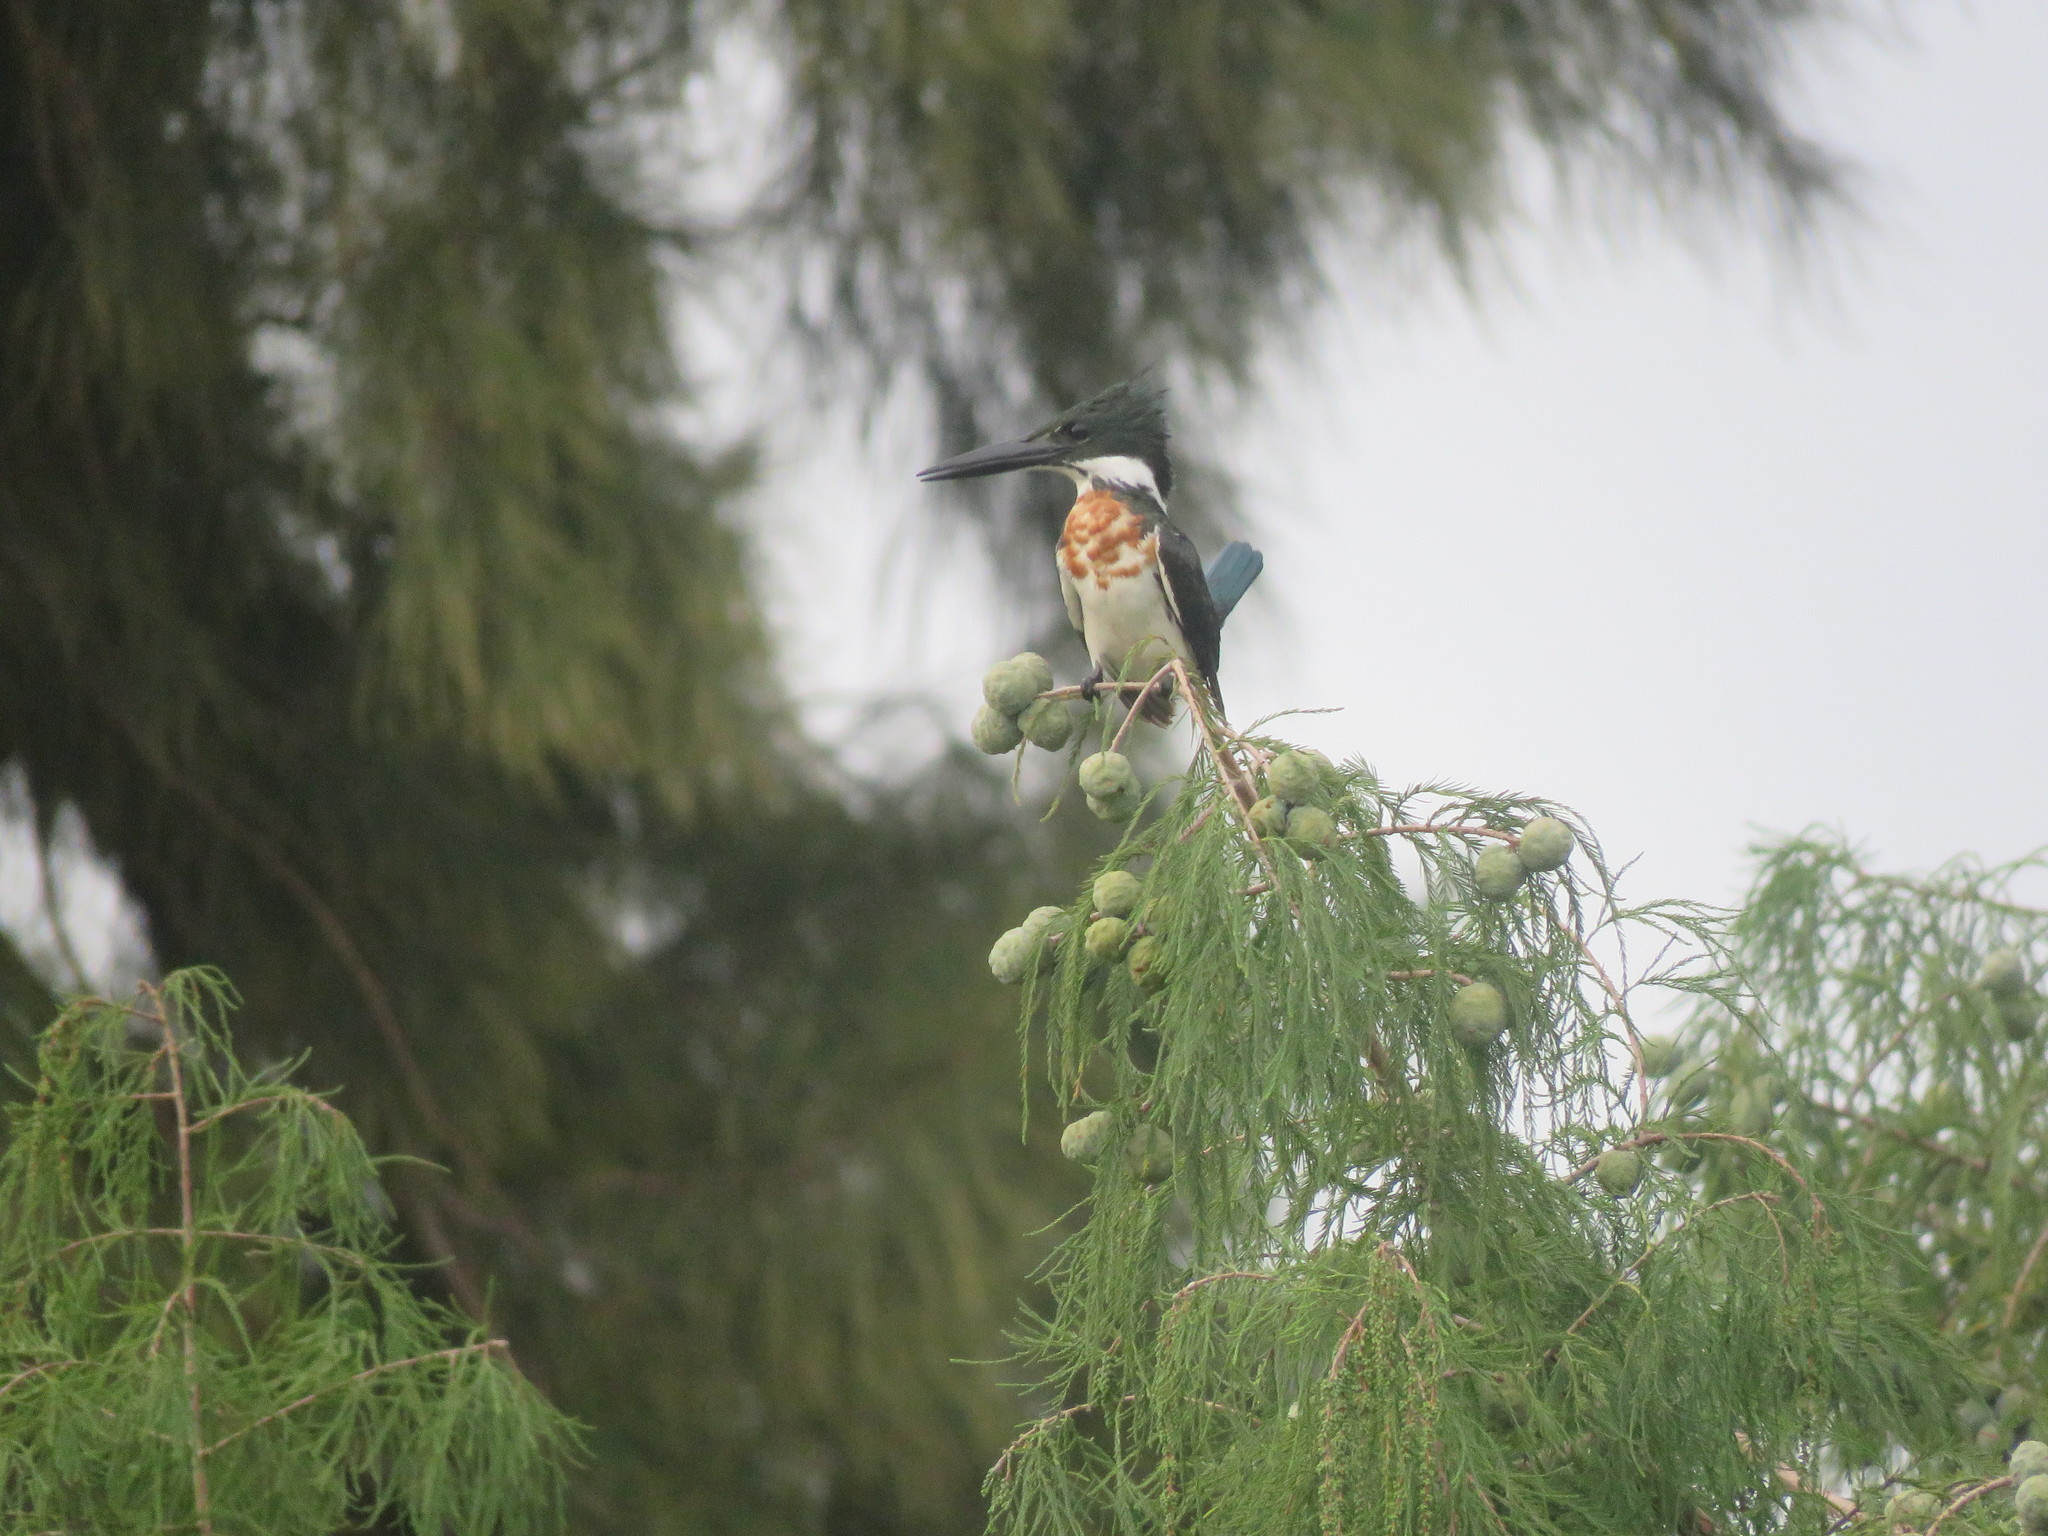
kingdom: Animalia
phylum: Chordata
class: Aves
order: Coraciiformes
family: Alcedinidae
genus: Chloroceryle
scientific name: Chloroceryle amazona
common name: Amazon kingfisher
